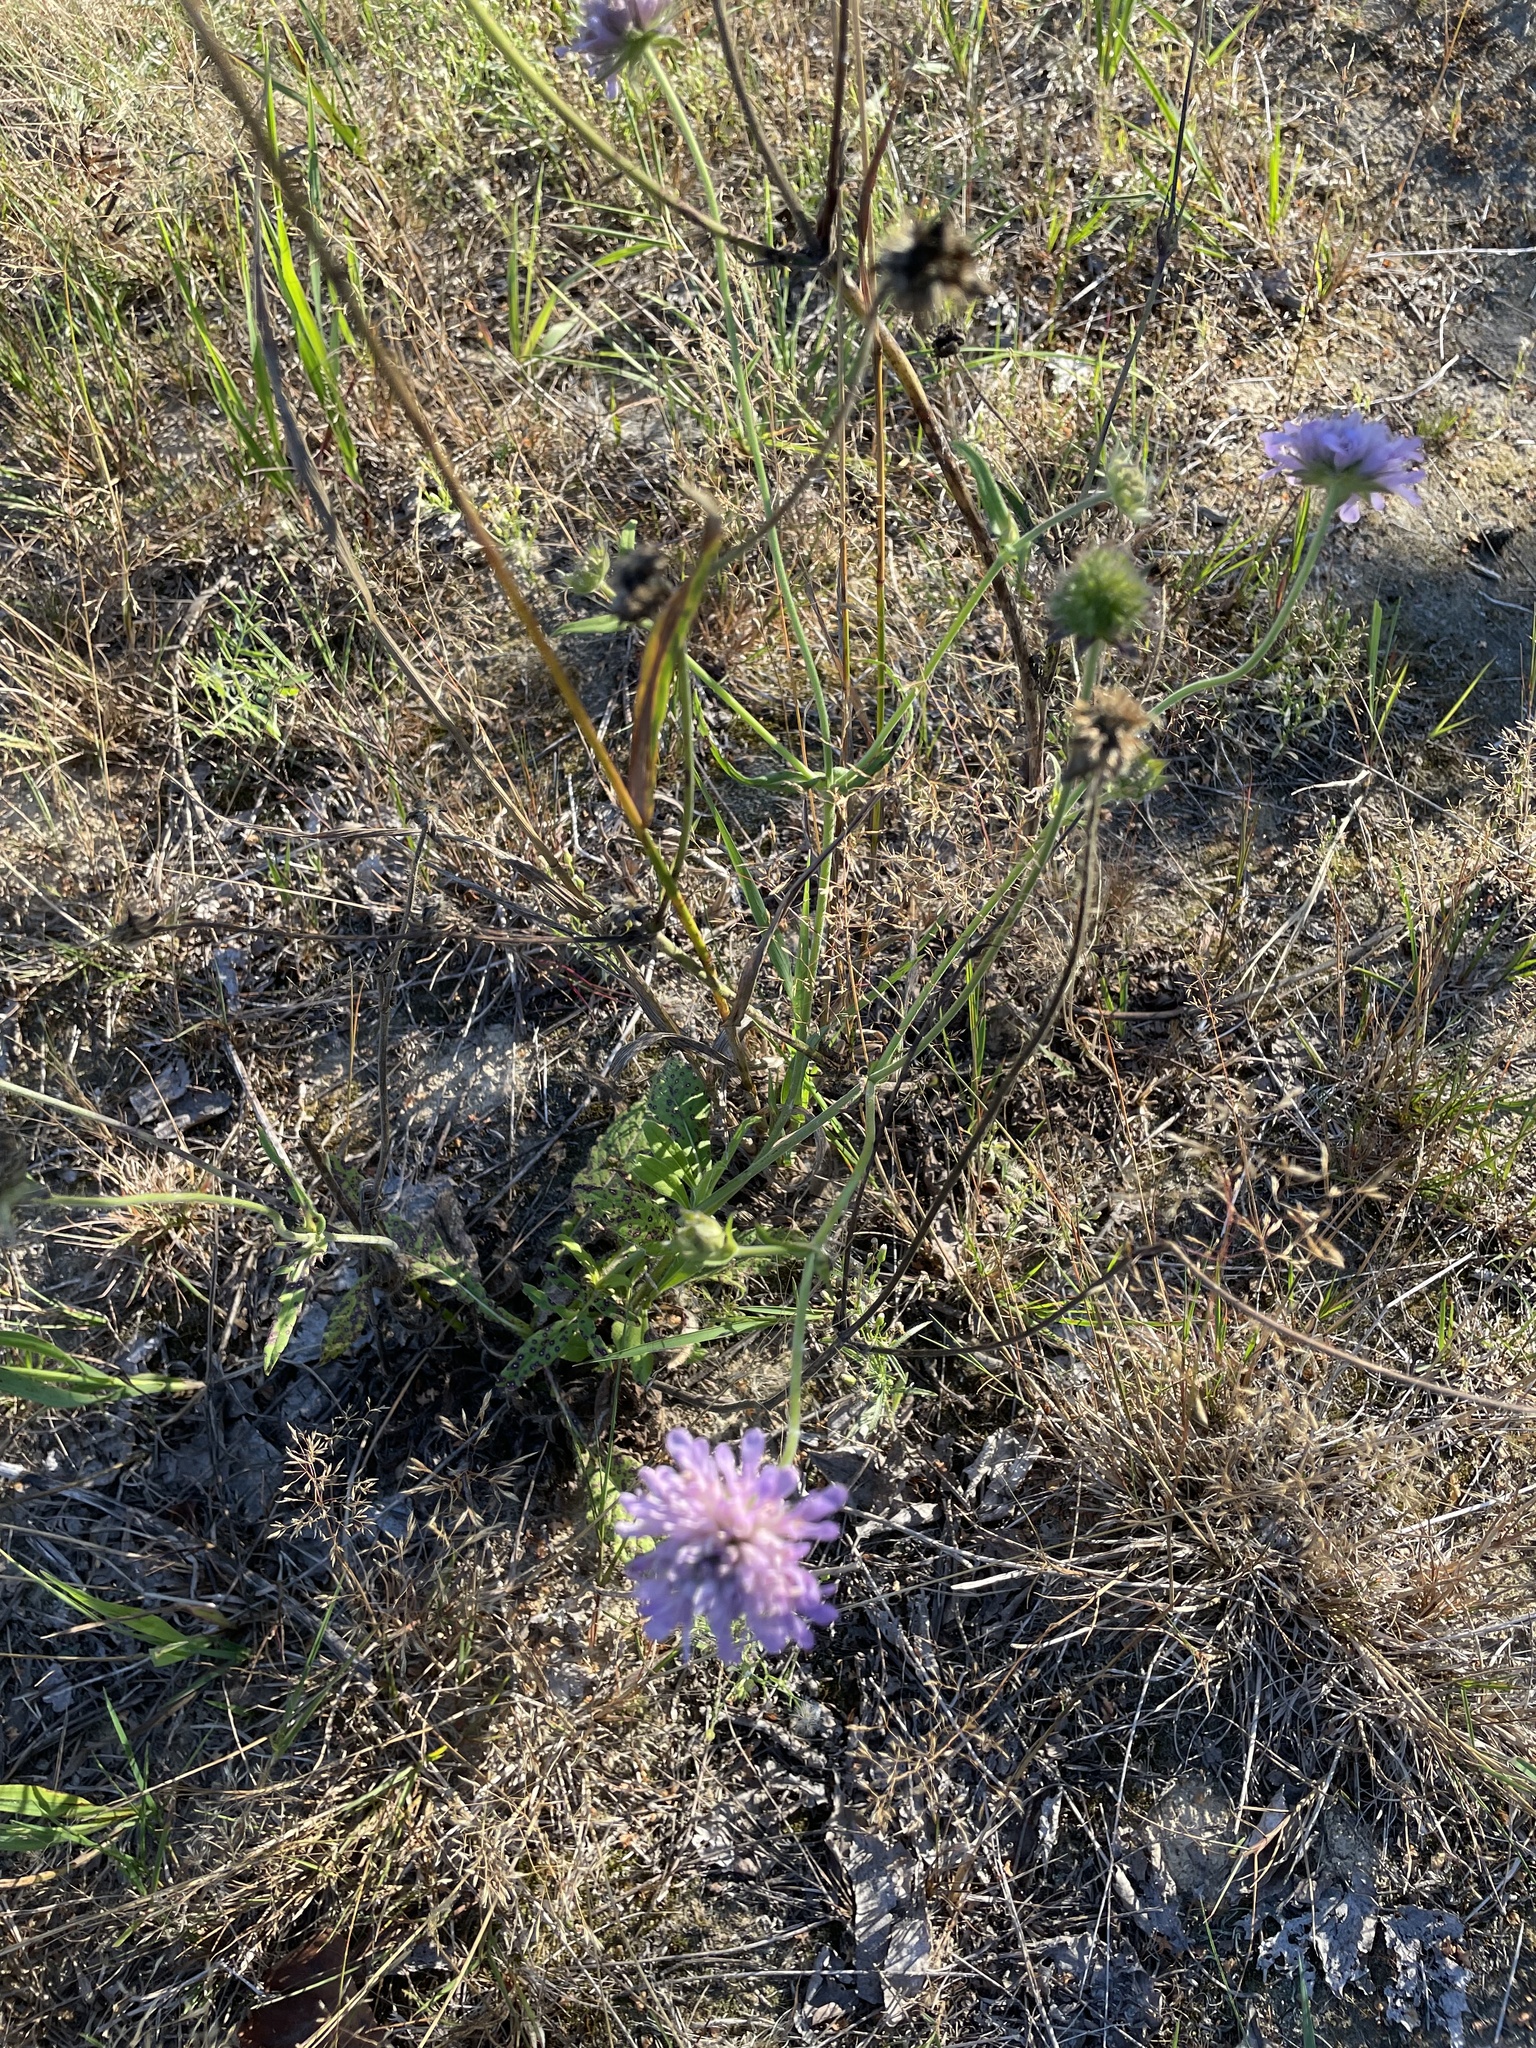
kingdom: Plantae
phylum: Tracheophyta
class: Magnoliopsida
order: Dipsacales
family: Caprifoliaceae
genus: Knautia
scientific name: Knautia arvensis
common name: Field scabiosa
